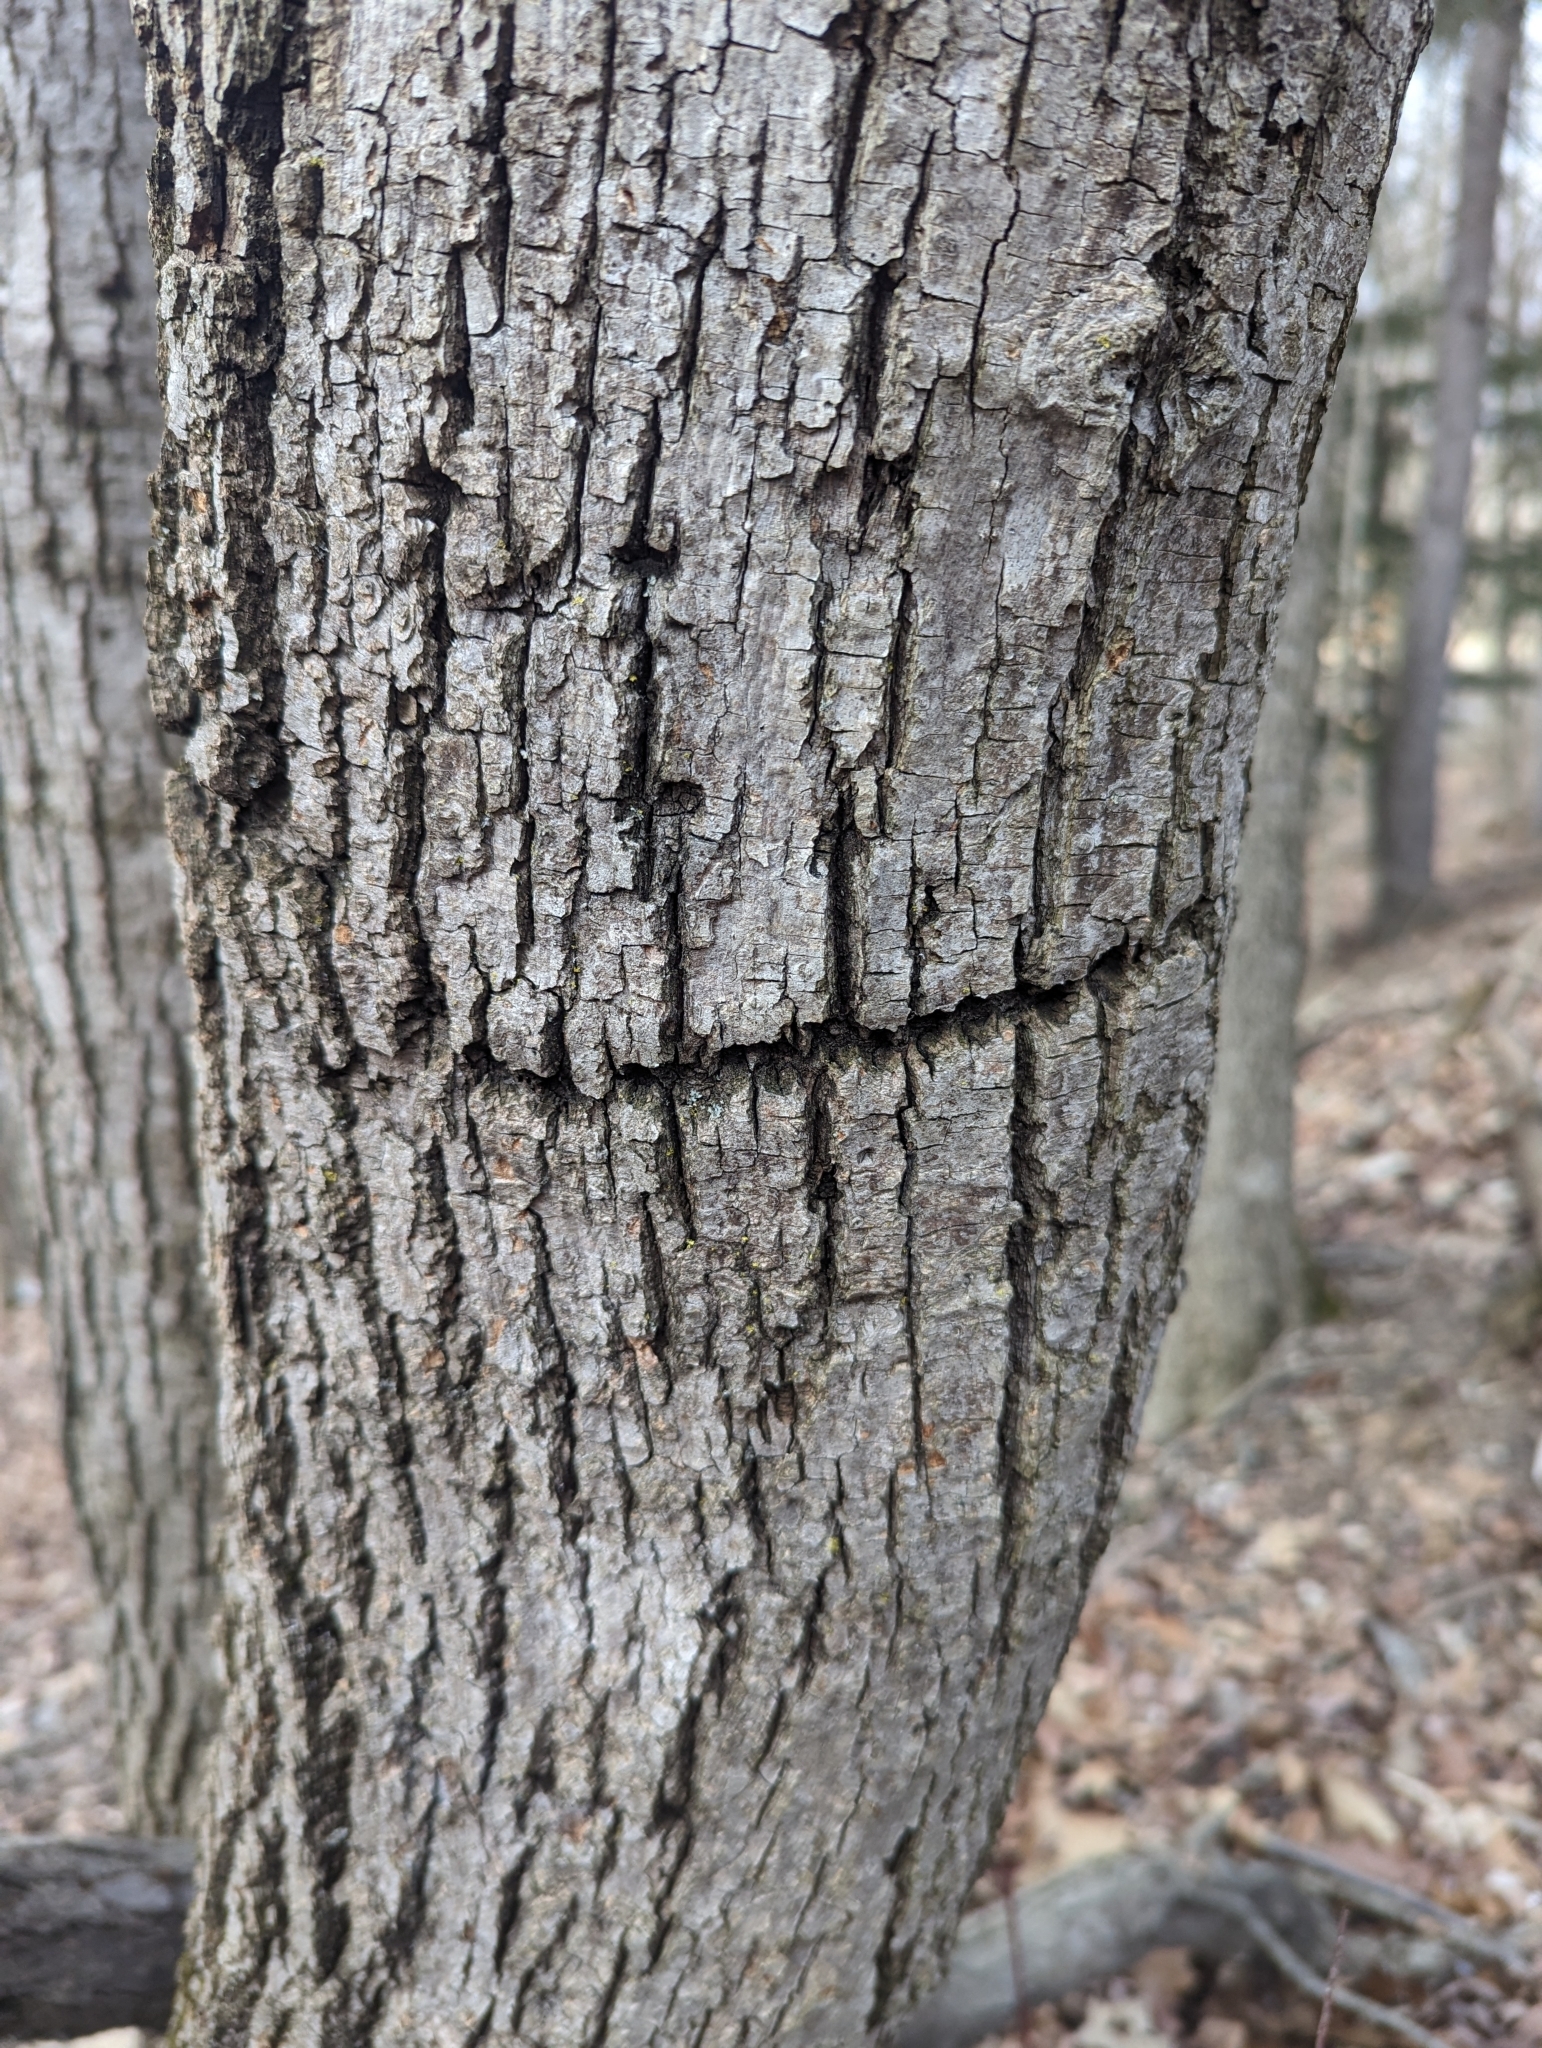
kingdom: Animalia
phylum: Chordata
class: Aves
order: Piciformes
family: Picidae
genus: Sphyrapicus
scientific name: Sphyrapicus varius
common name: Yellow-bellied sapsucker
